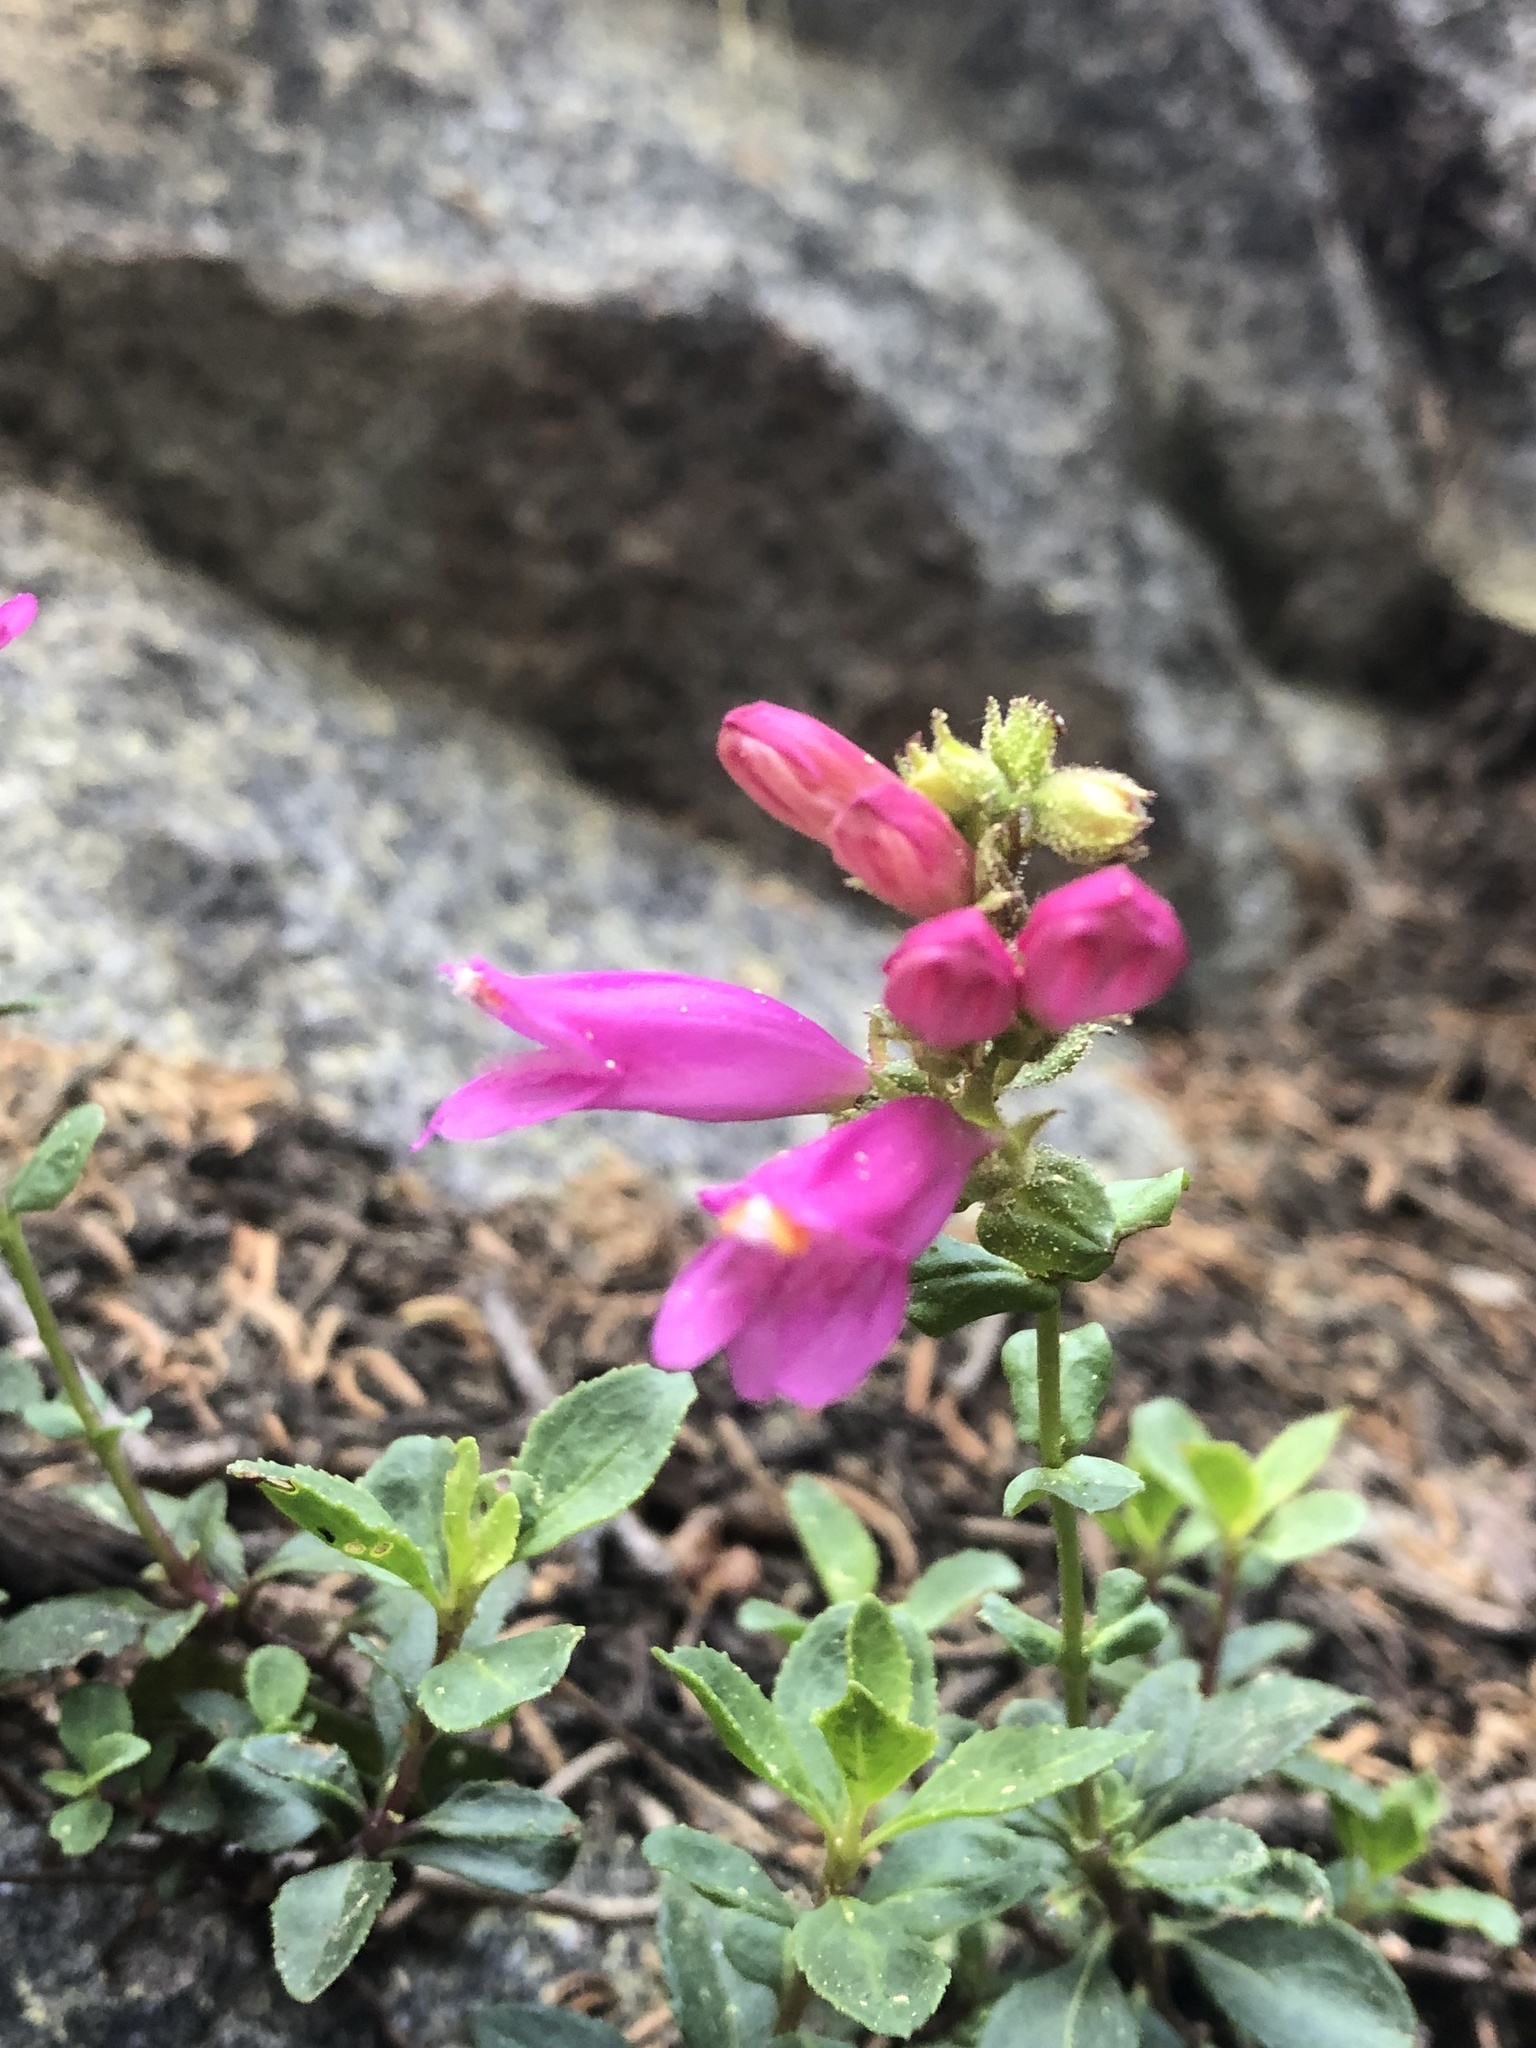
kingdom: Plantae
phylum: Tracheophyta
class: Magnoliopsida
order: Lamiales
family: Plantaginaceae
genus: Penstemon
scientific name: Penstemon newberryi
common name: Mountain-pride
